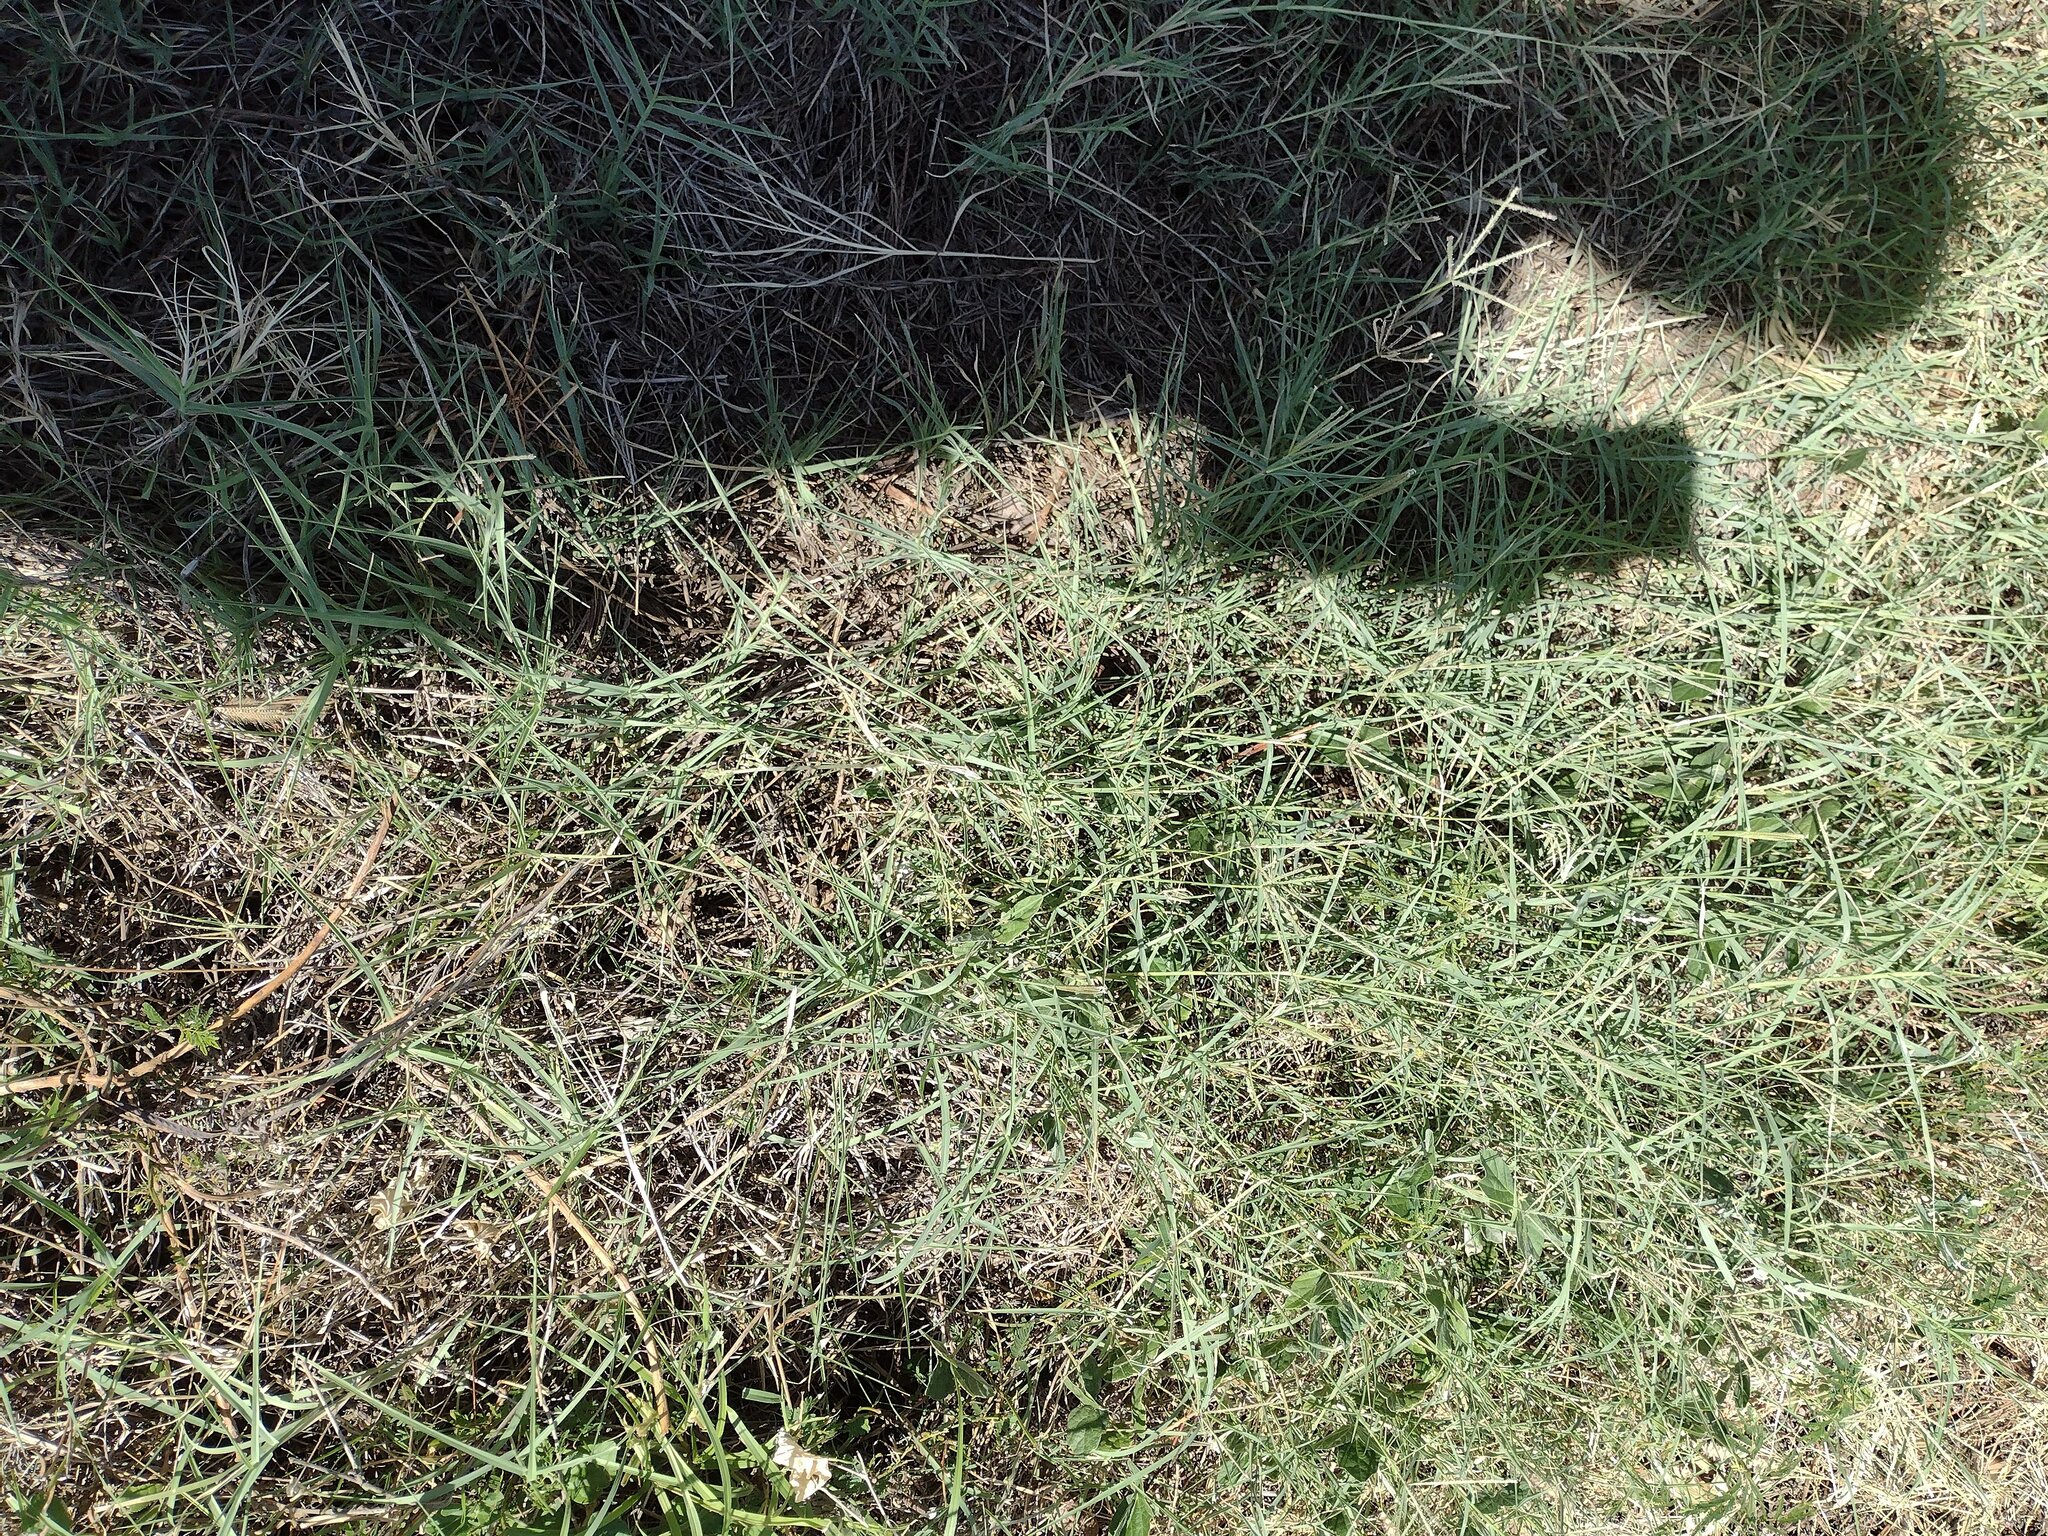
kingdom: Plantae
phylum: Tracheophyta
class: Liliopsida
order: Poales
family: Poaceae
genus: Cynodon
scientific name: Cynodon dactylon
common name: Bermuda grass
